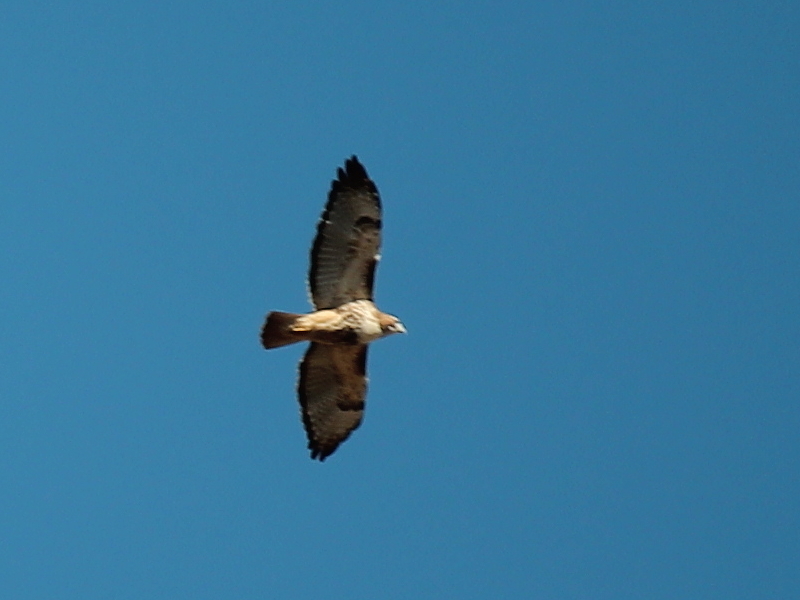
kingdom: Animalia
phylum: Chordata
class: Aves
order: Accipitriformes
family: Accipitridae
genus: Buteo
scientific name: Buteo jamaicensis
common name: Red-tailed hawk
